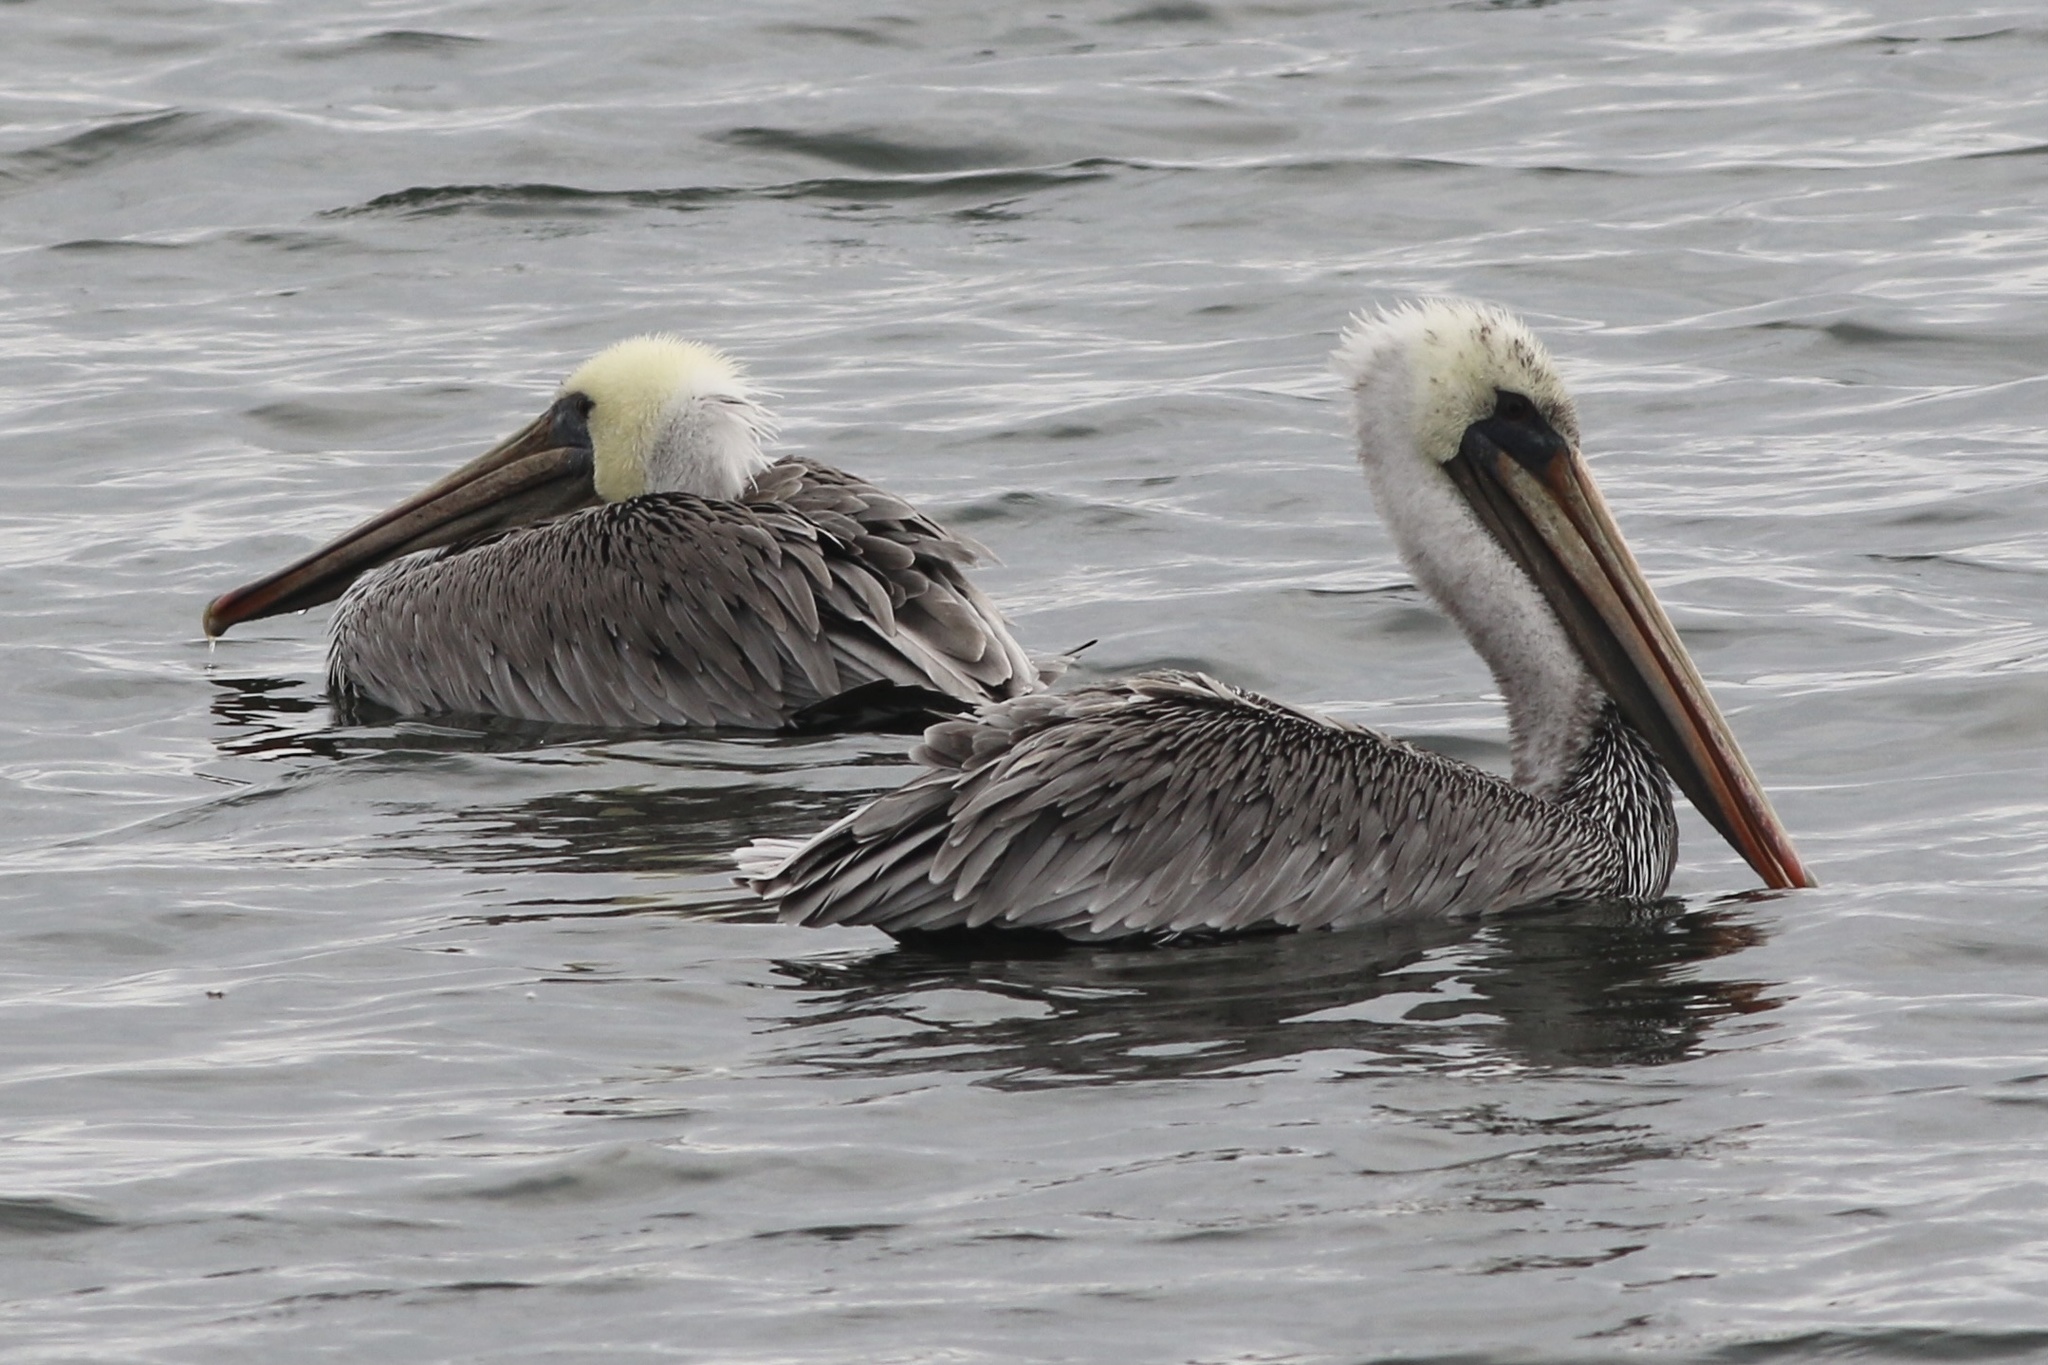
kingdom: Animalia
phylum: Chordata
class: Aves
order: Pelecaniformes
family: Pelecanidae
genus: Pelecanus
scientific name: Pelecanus occidentalis
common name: Brown pelican
